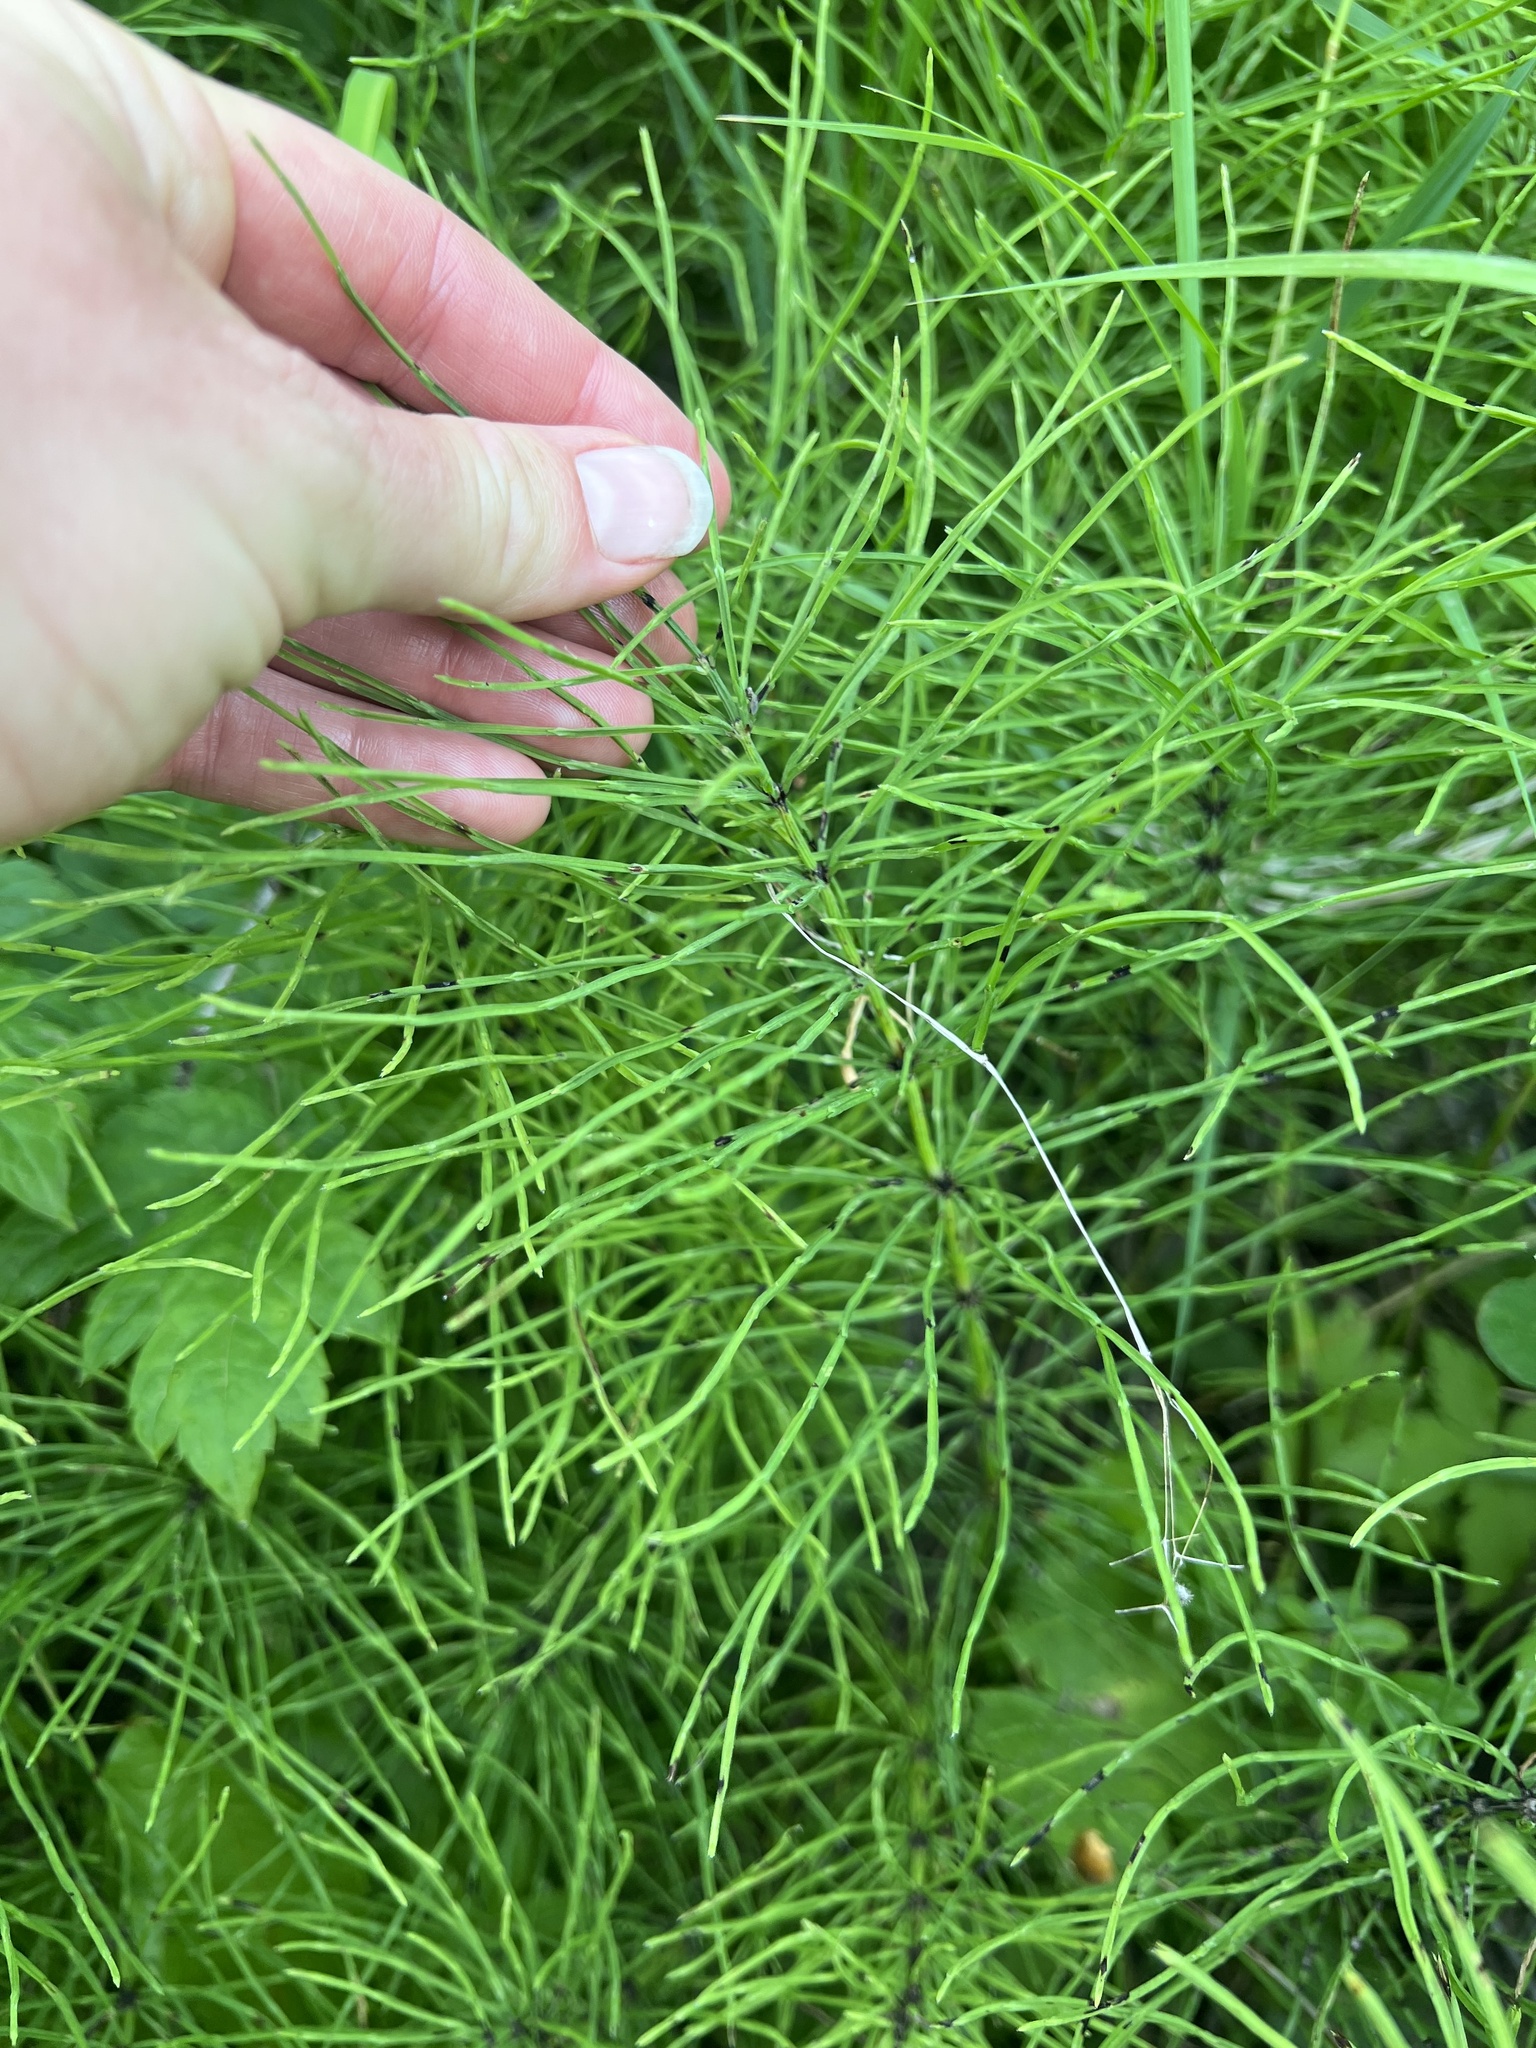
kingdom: Plantae
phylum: Tracheophyta
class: Polypodiopsida
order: Equisetales
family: Equisetaceae
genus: Equisetum
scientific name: Equisetum arvense
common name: Field horsetail
